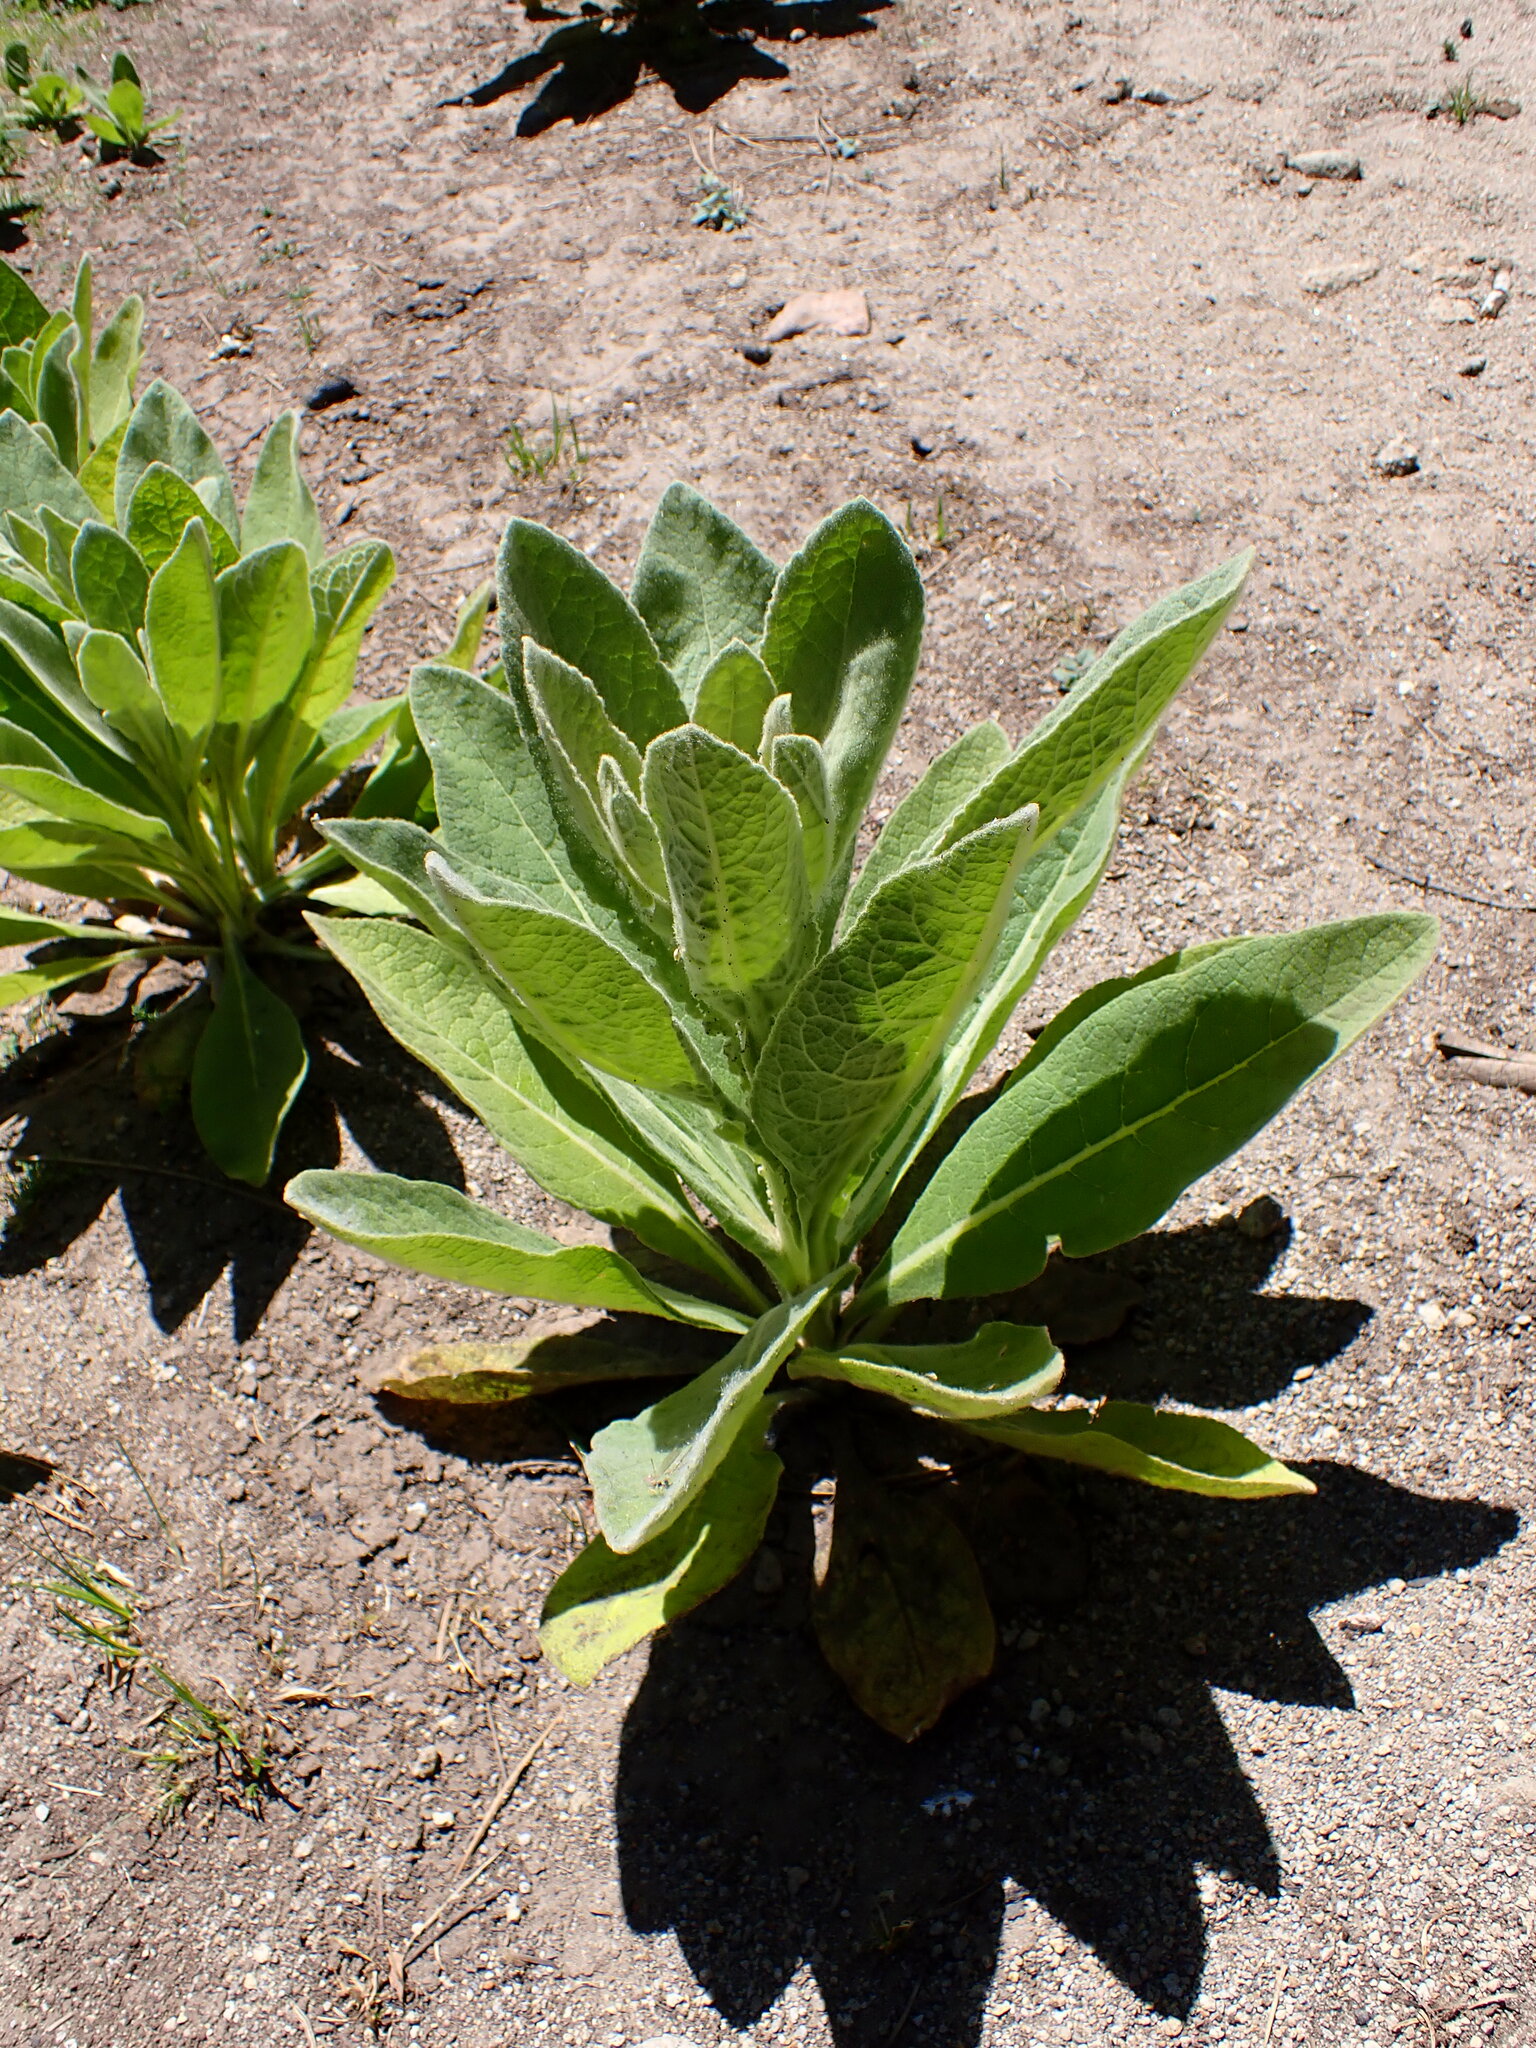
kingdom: Plantae
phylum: Tracheophyta
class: Magnoliopsida
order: Lamiales
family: Scrophulariaceae
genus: Verbascum
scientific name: Verbascum thapsus
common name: Common mullein
